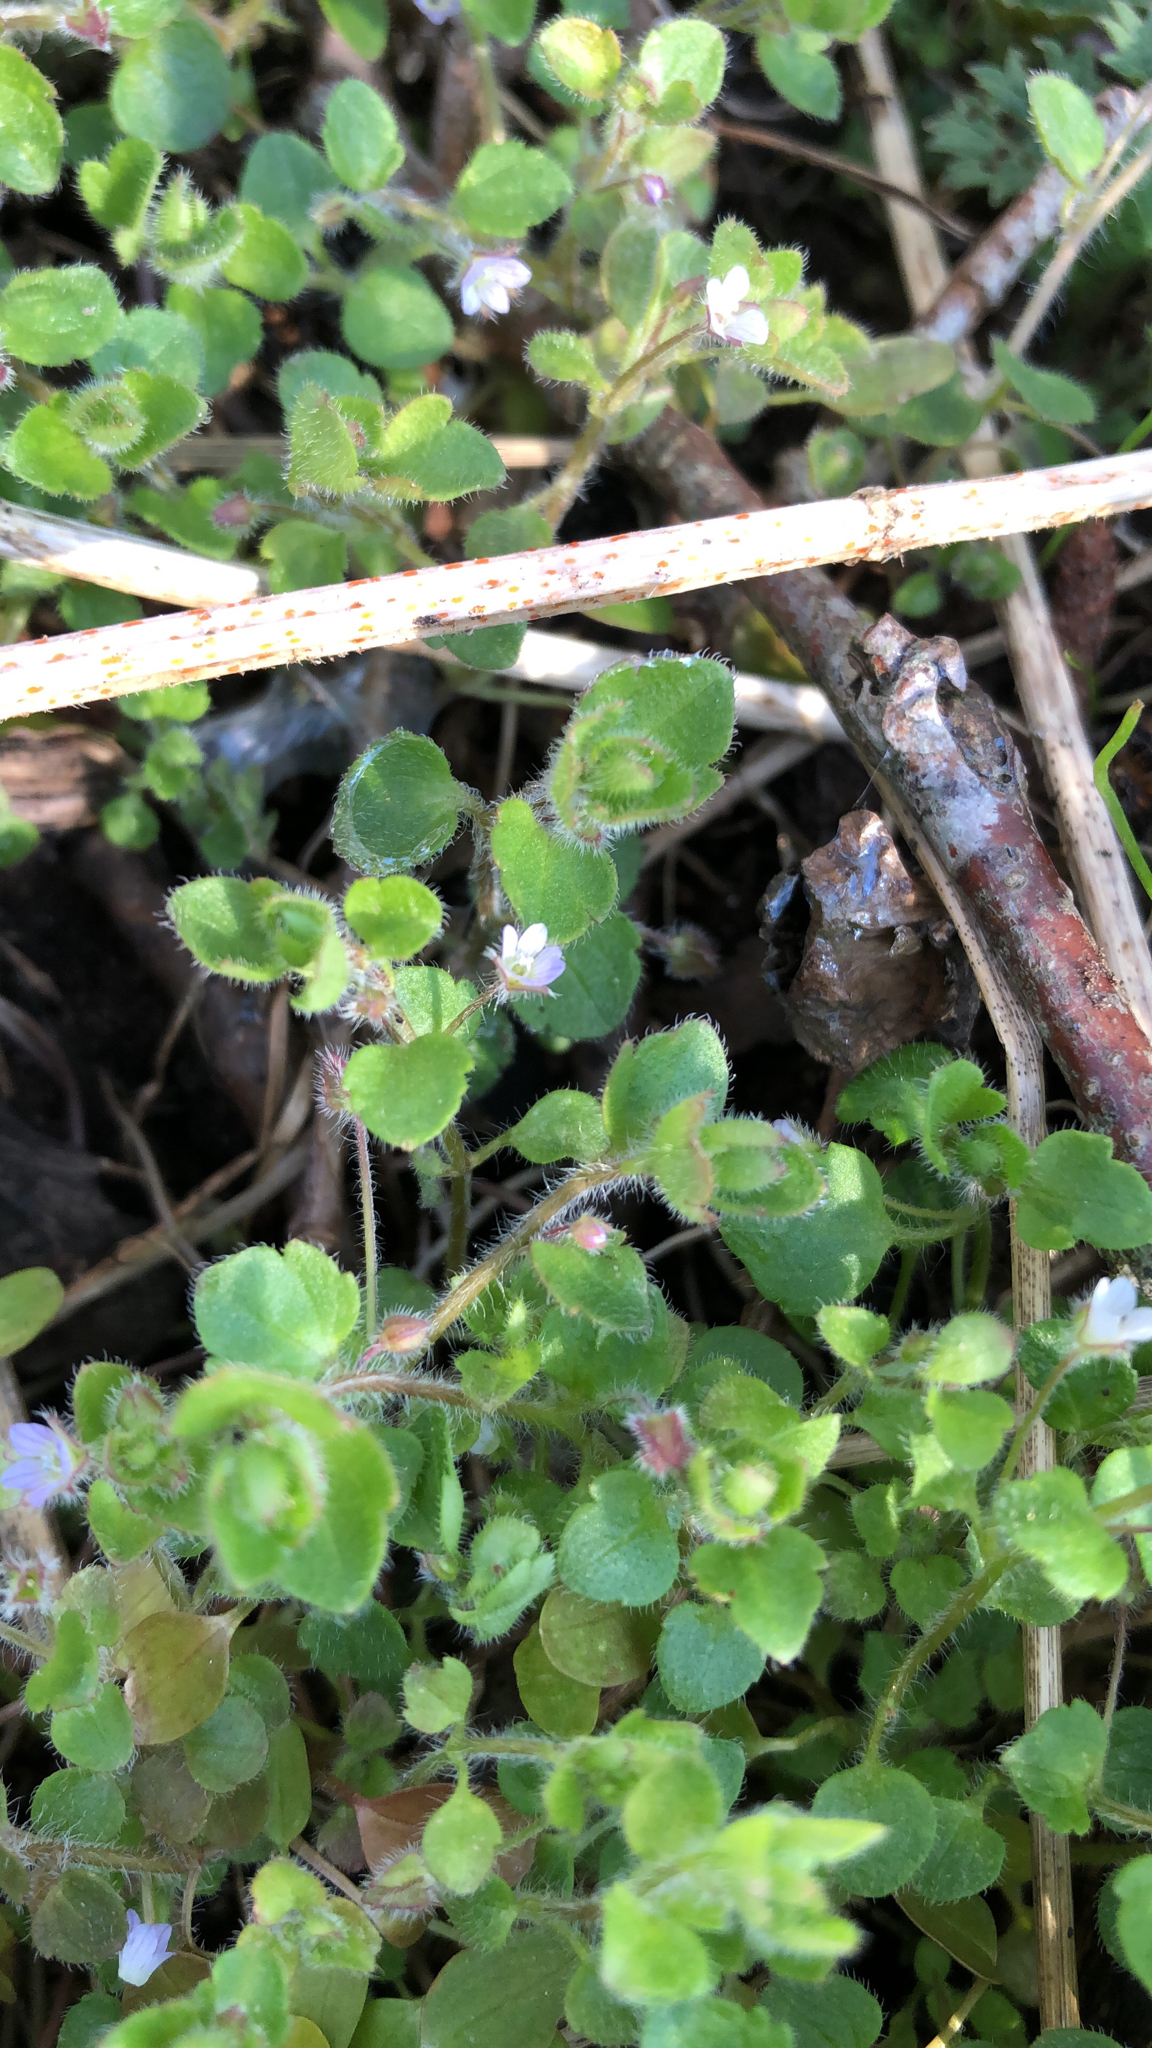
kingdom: Plantae
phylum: Tracheophyta
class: Magnoliopsida
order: Lamiales
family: Plantaginaceae
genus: Veronica
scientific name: Veronica sublobata
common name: False ivy-leaved speedwell
